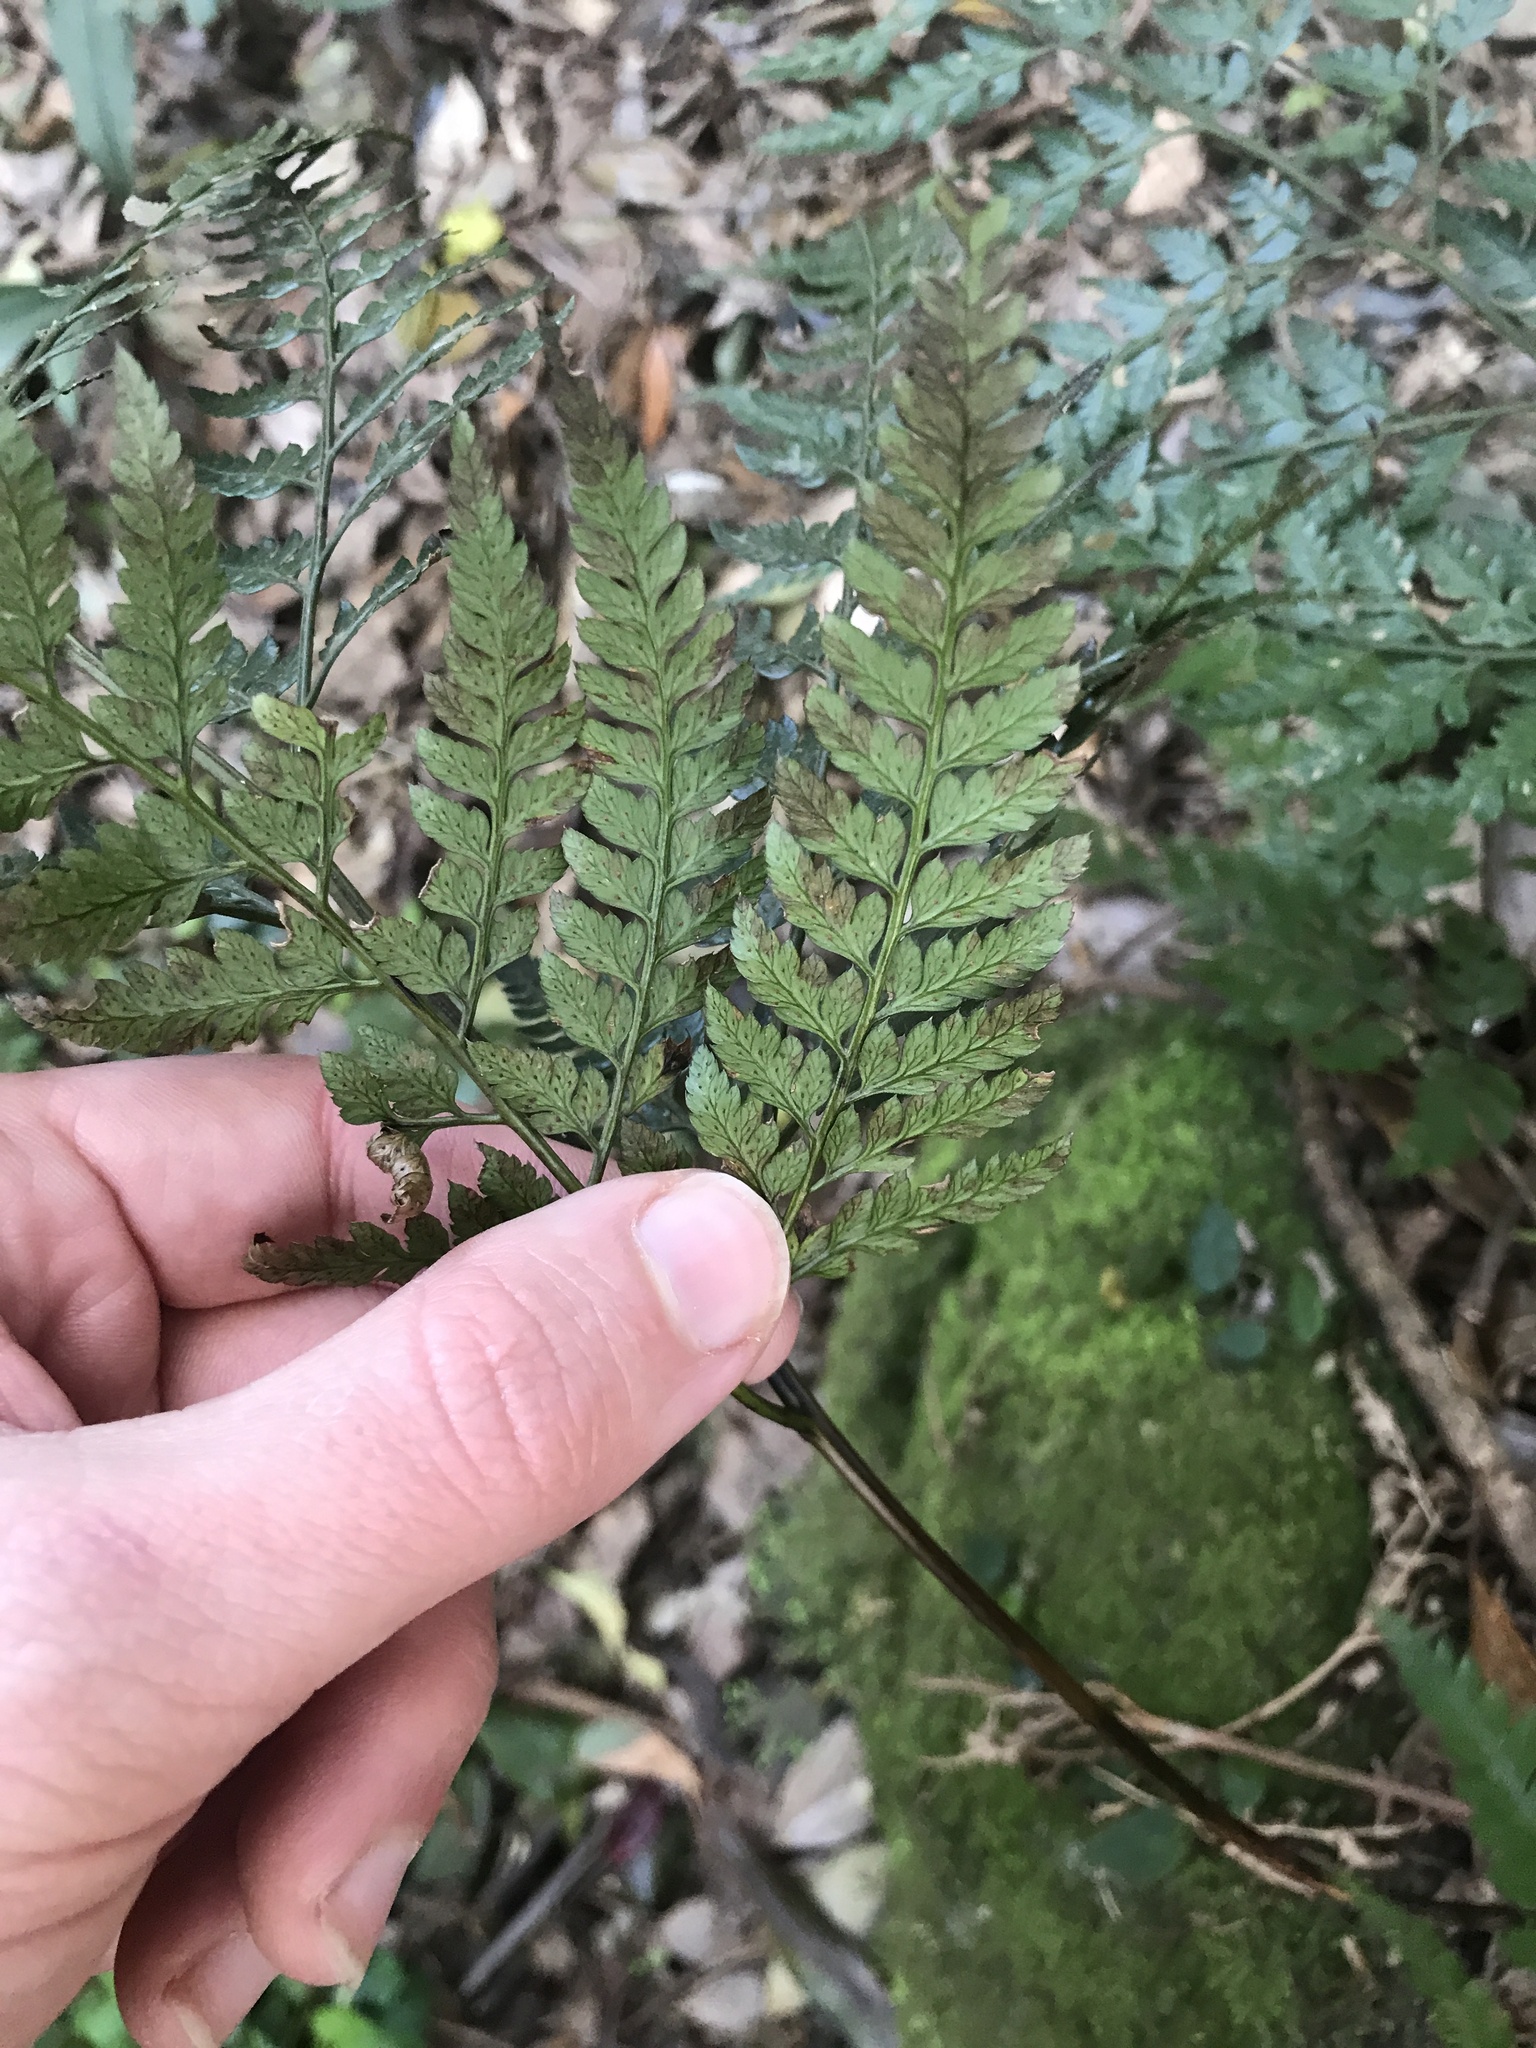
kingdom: Plantae
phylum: Tracheophyta
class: Polypodiopsida
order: Polypodiales
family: Dryopteridaceae
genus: Arachniodes
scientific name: Arachniodes cornu-cervi
